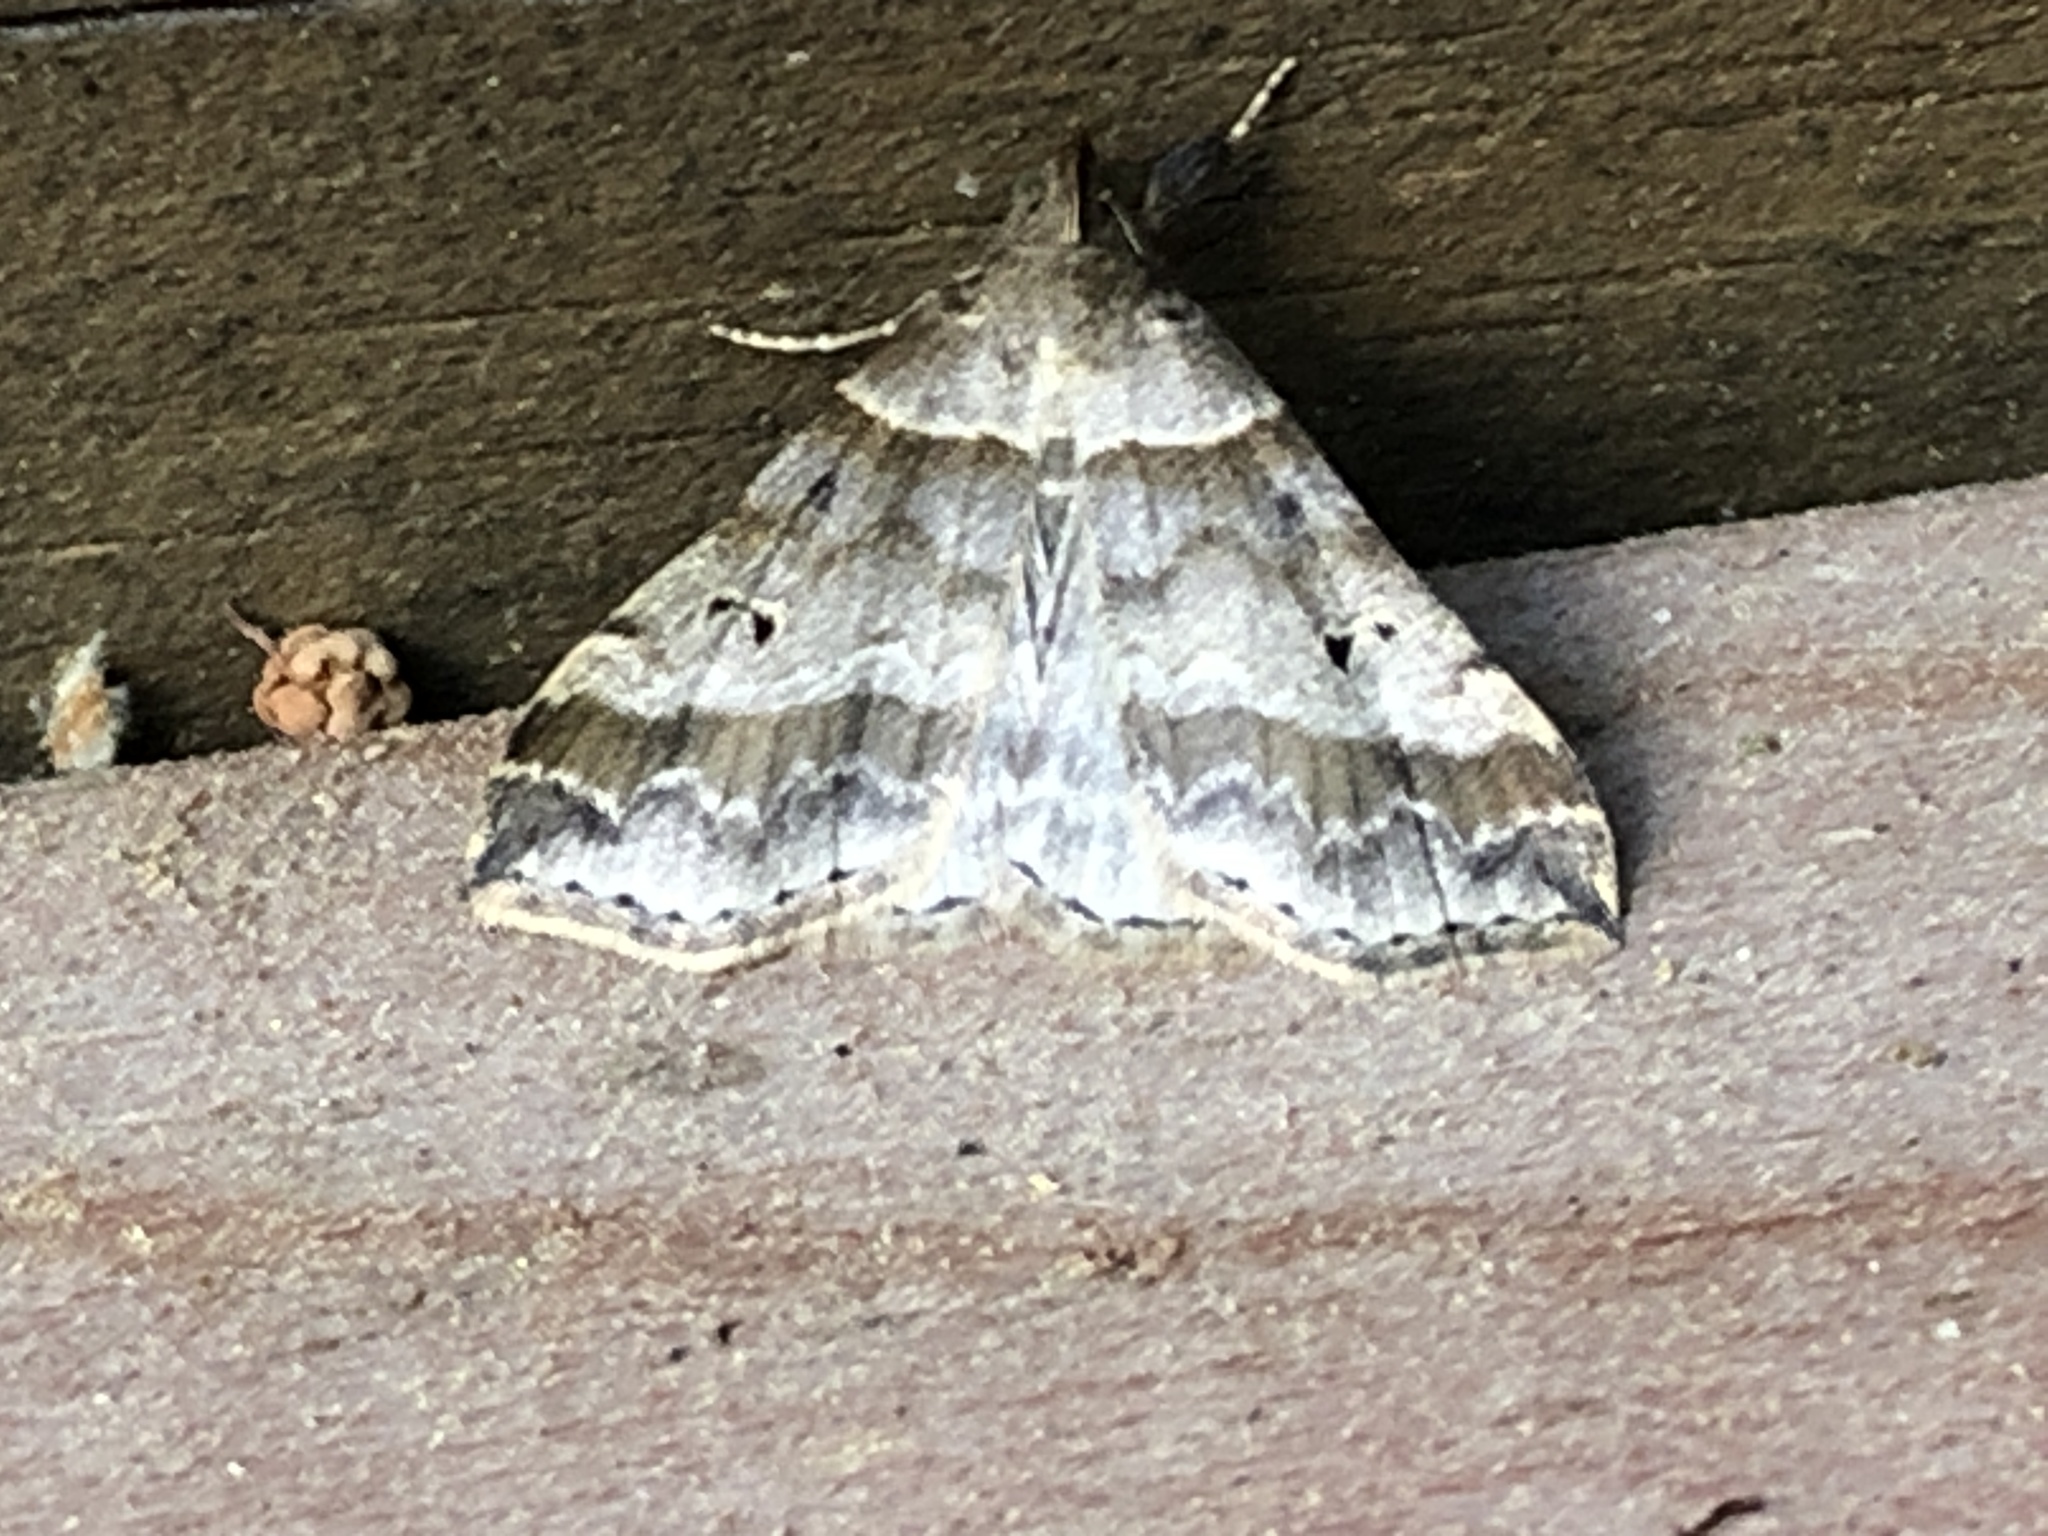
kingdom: Animalia
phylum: Arthropoda
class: Insecta
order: Lepidoptera
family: Erebidae
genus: Phaeolita
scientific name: Phaeolita pyramusalis
